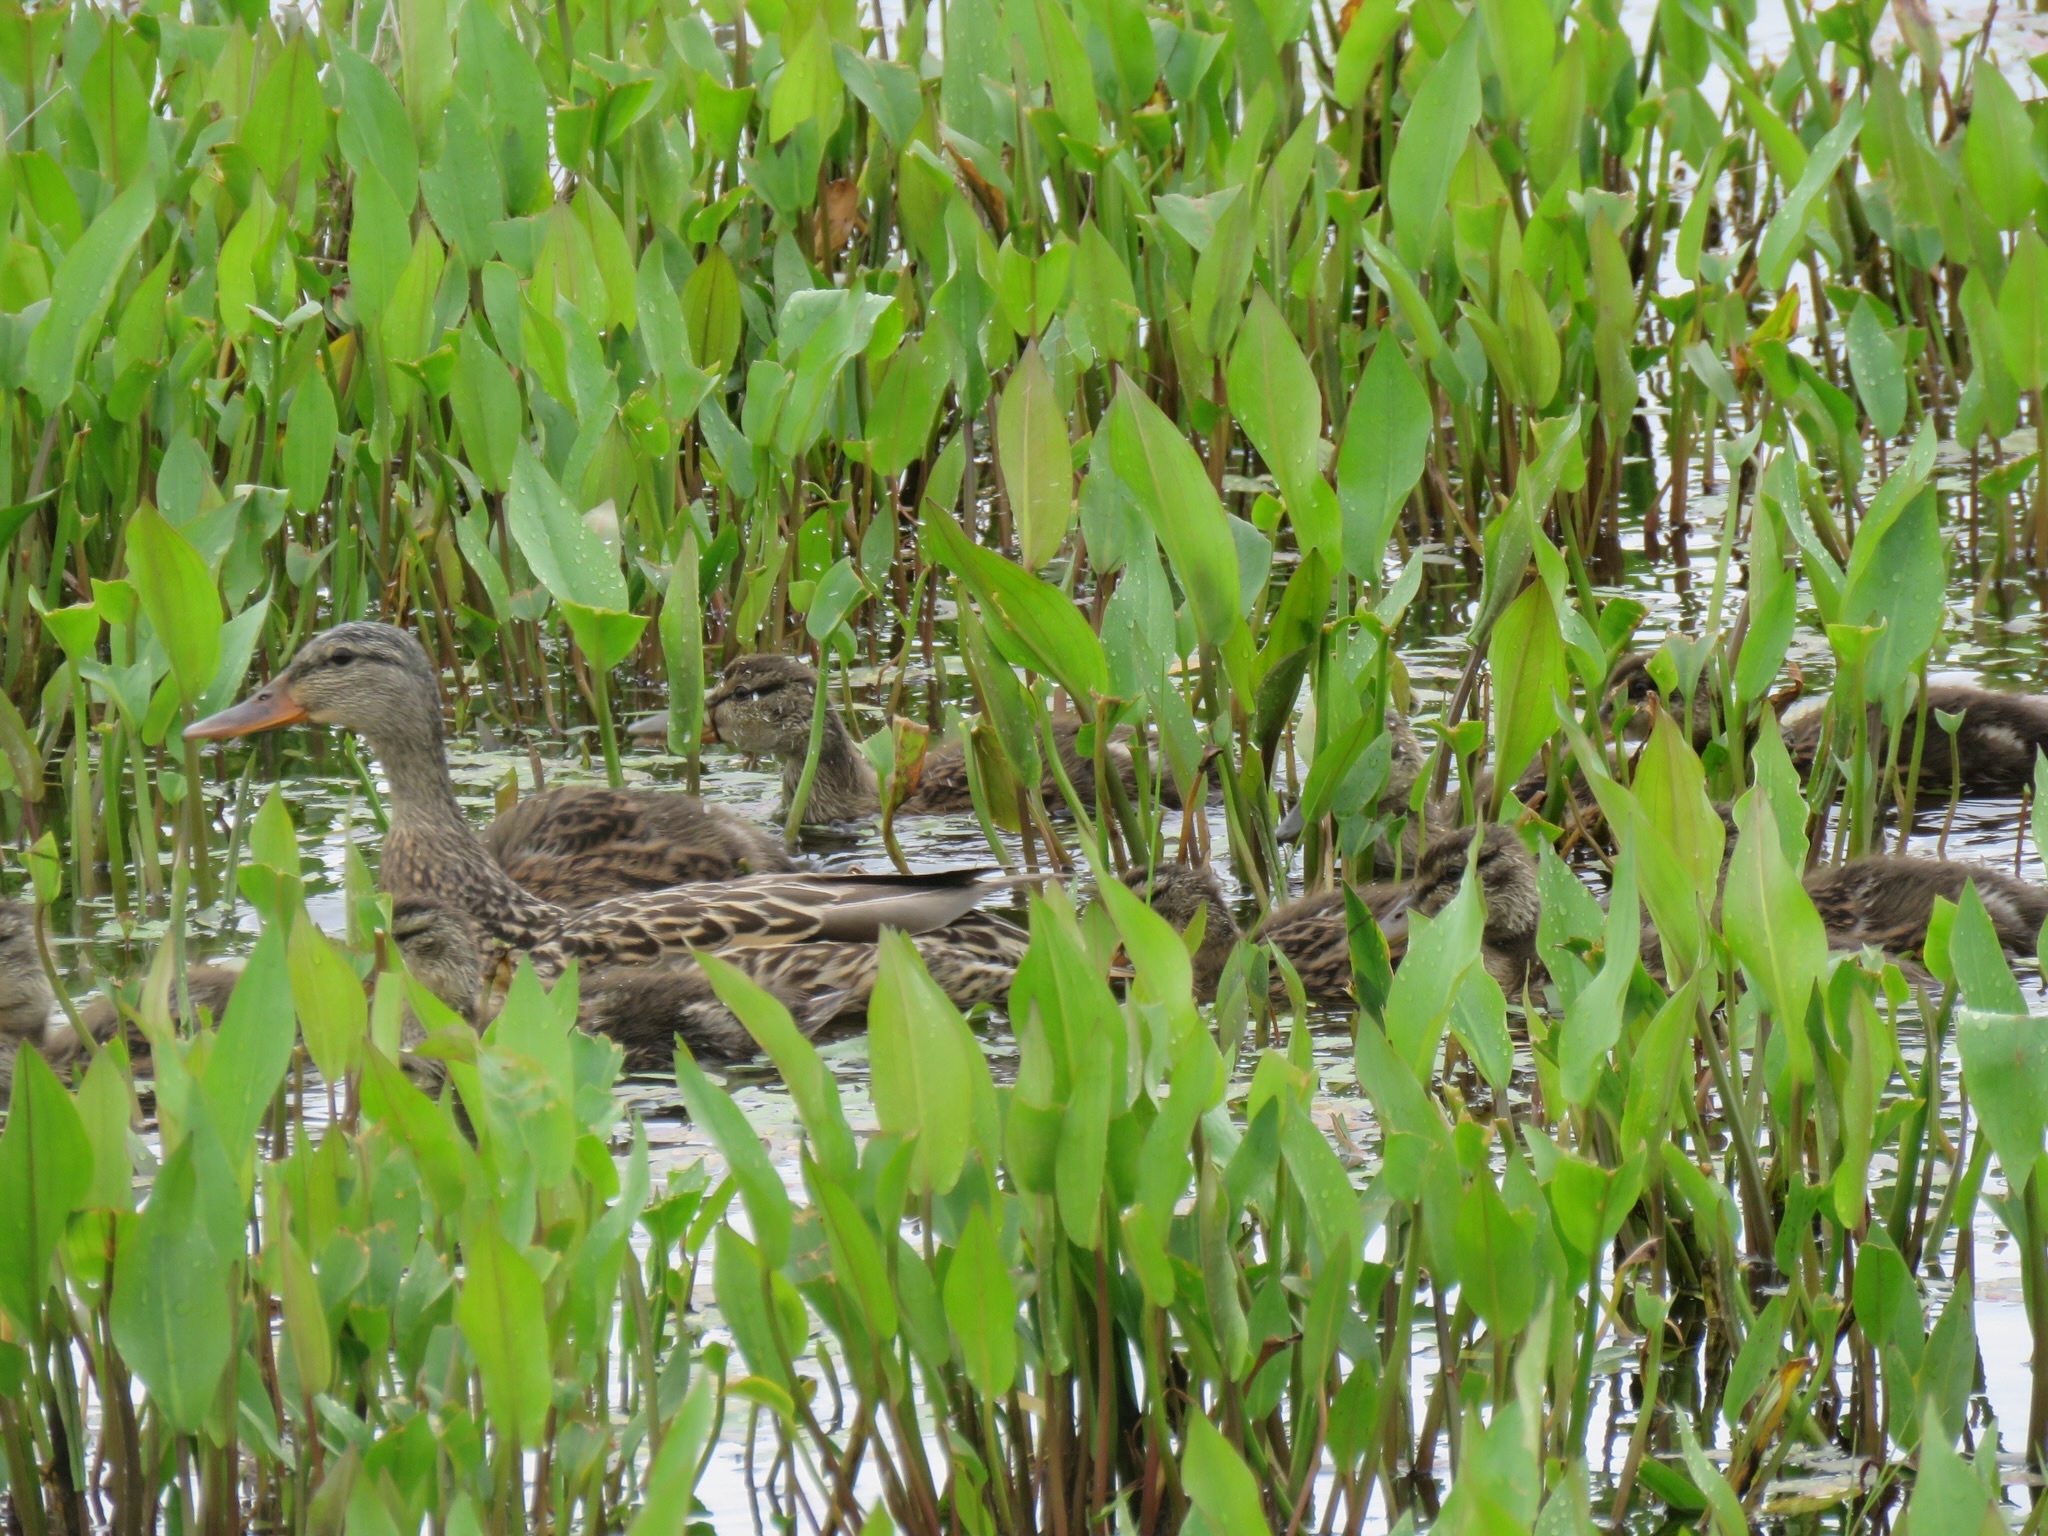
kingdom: Animalia
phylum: Chordata
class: Aves
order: Anseriformes
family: Anatidae
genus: Anas
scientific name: Anas platyrhynchos
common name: Mallard
